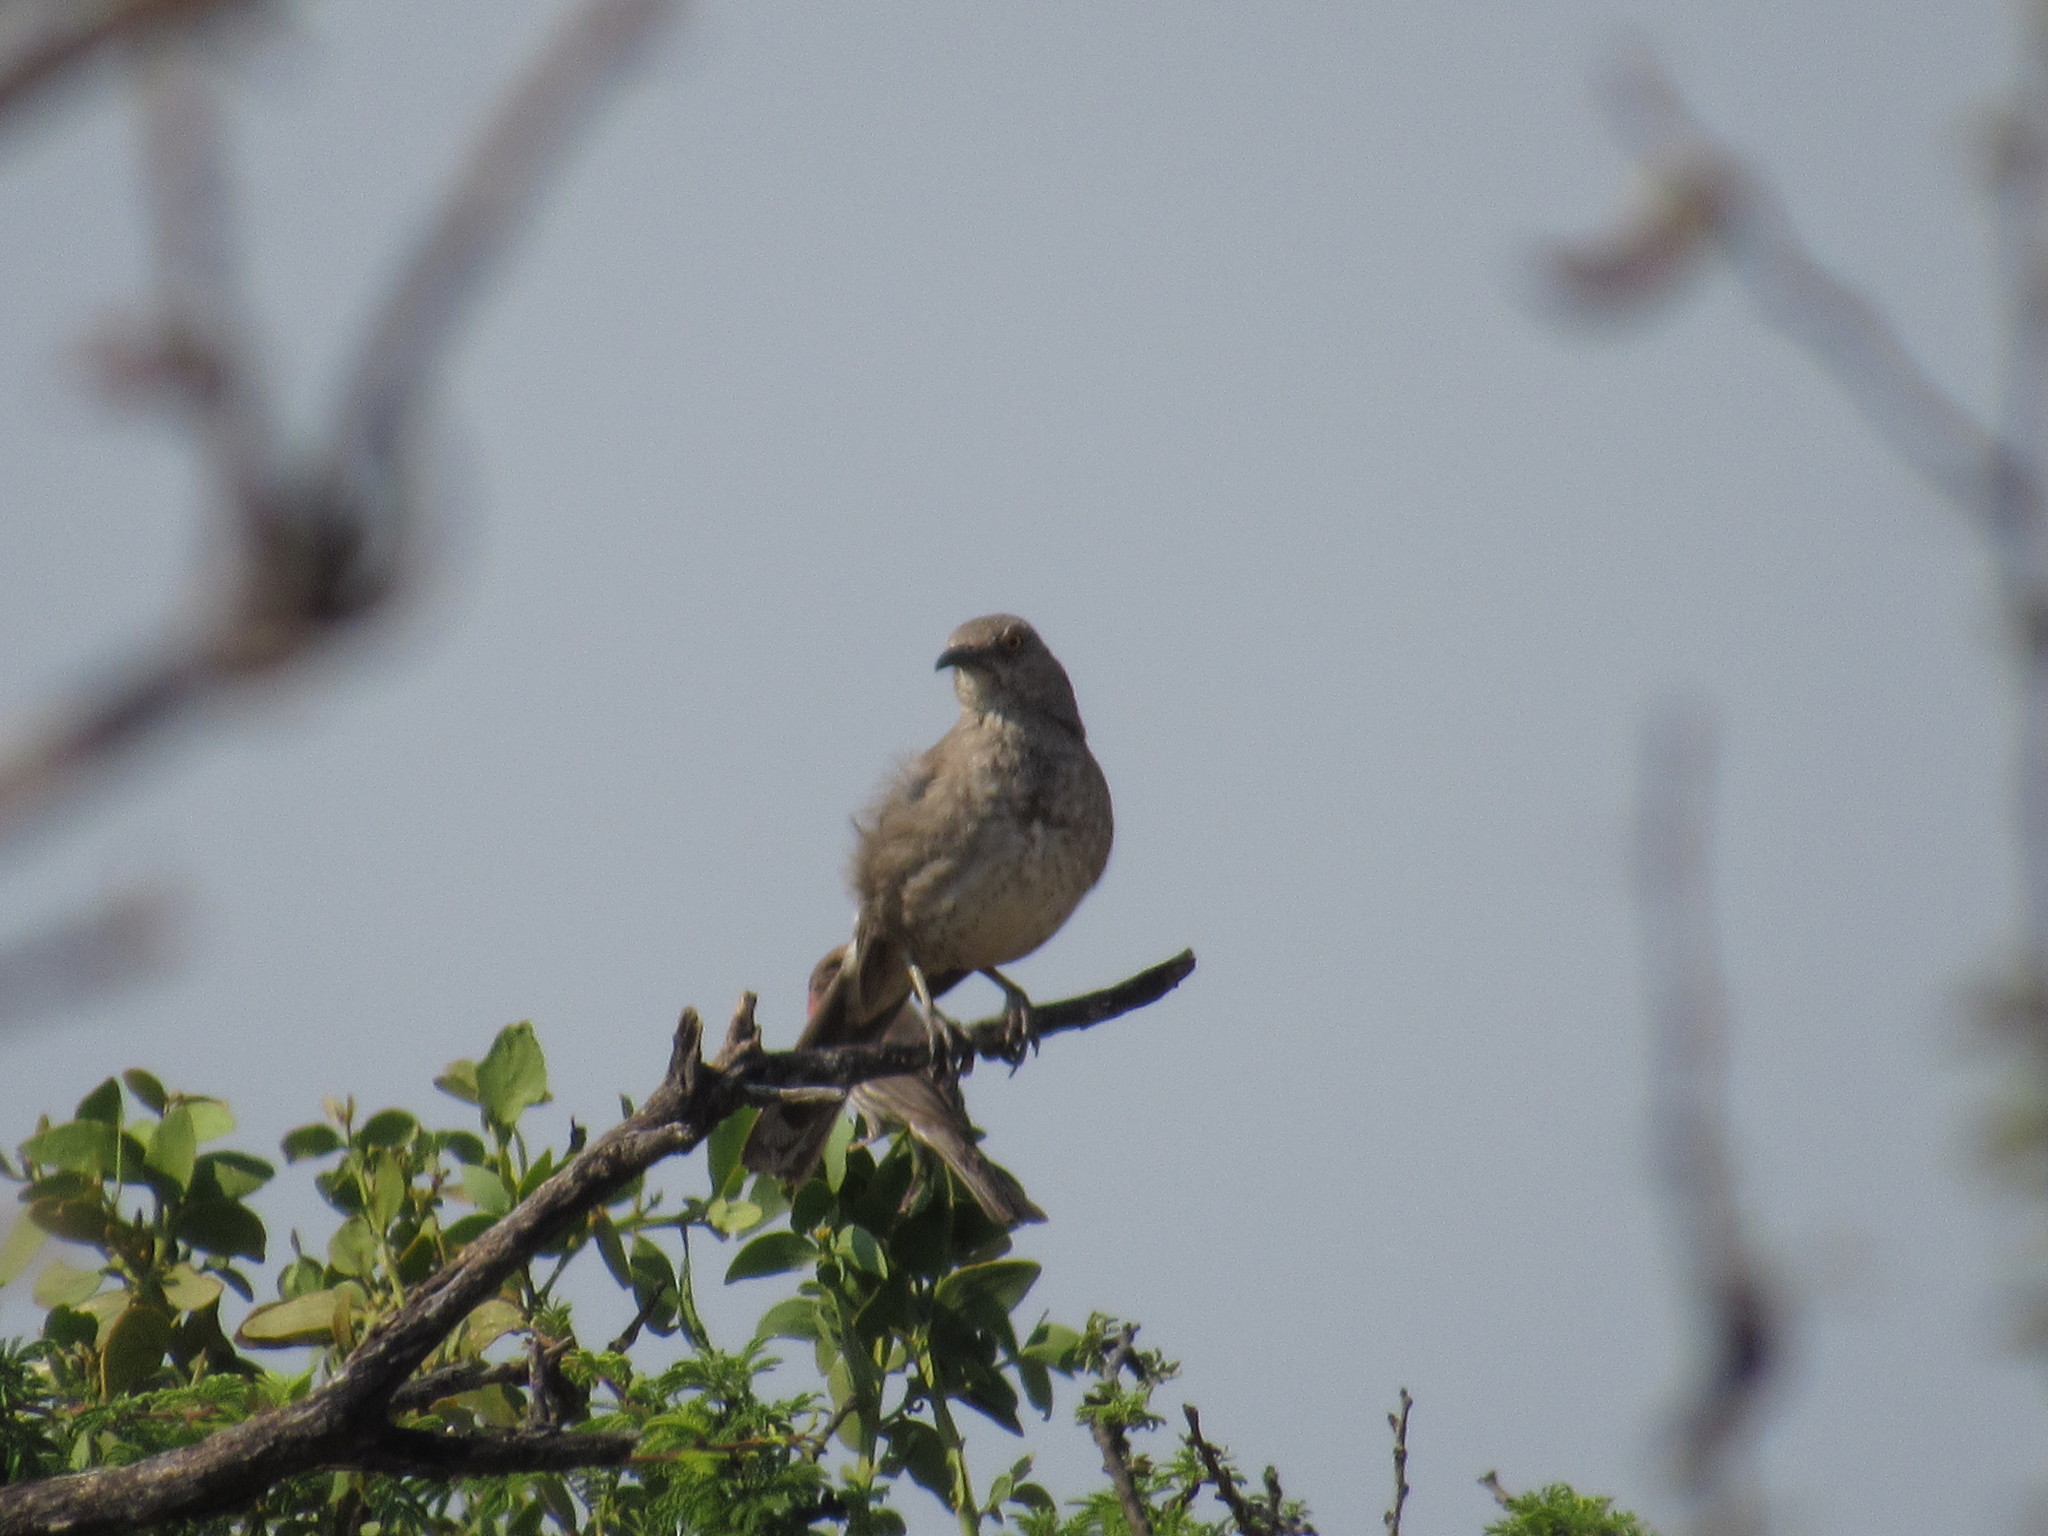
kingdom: Animalia
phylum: Chordata
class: Aves
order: Passeriformes
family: Mimidae
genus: Toxostoma
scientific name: Toxostoma curvirostre
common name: Curve-billed thrasher
